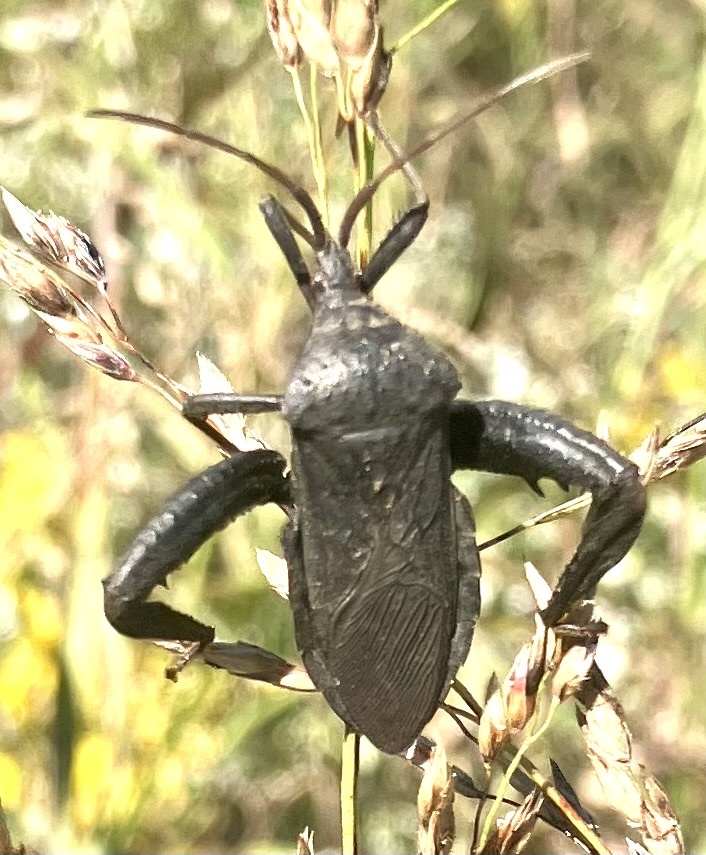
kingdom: Animalia
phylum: Arthropoda
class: Insecta
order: Hemiptera
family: Coreidae
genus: Acanthocephala
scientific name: Acanthocephala femorata
